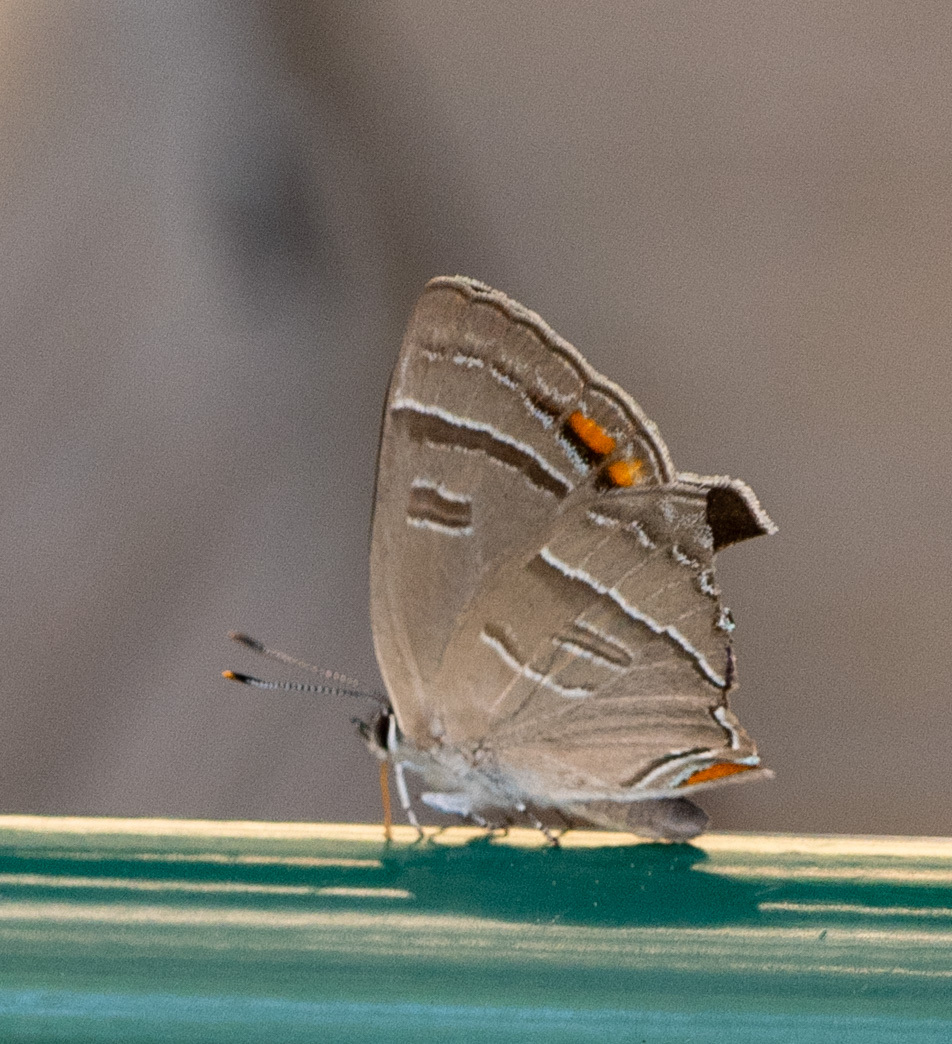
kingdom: Animalia
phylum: Arthropoda
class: Insecta
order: Lepidoptera
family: Lycaenidae
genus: Hypaurotis
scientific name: Hypaurotis crysalus
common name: Colorado hairstreak
